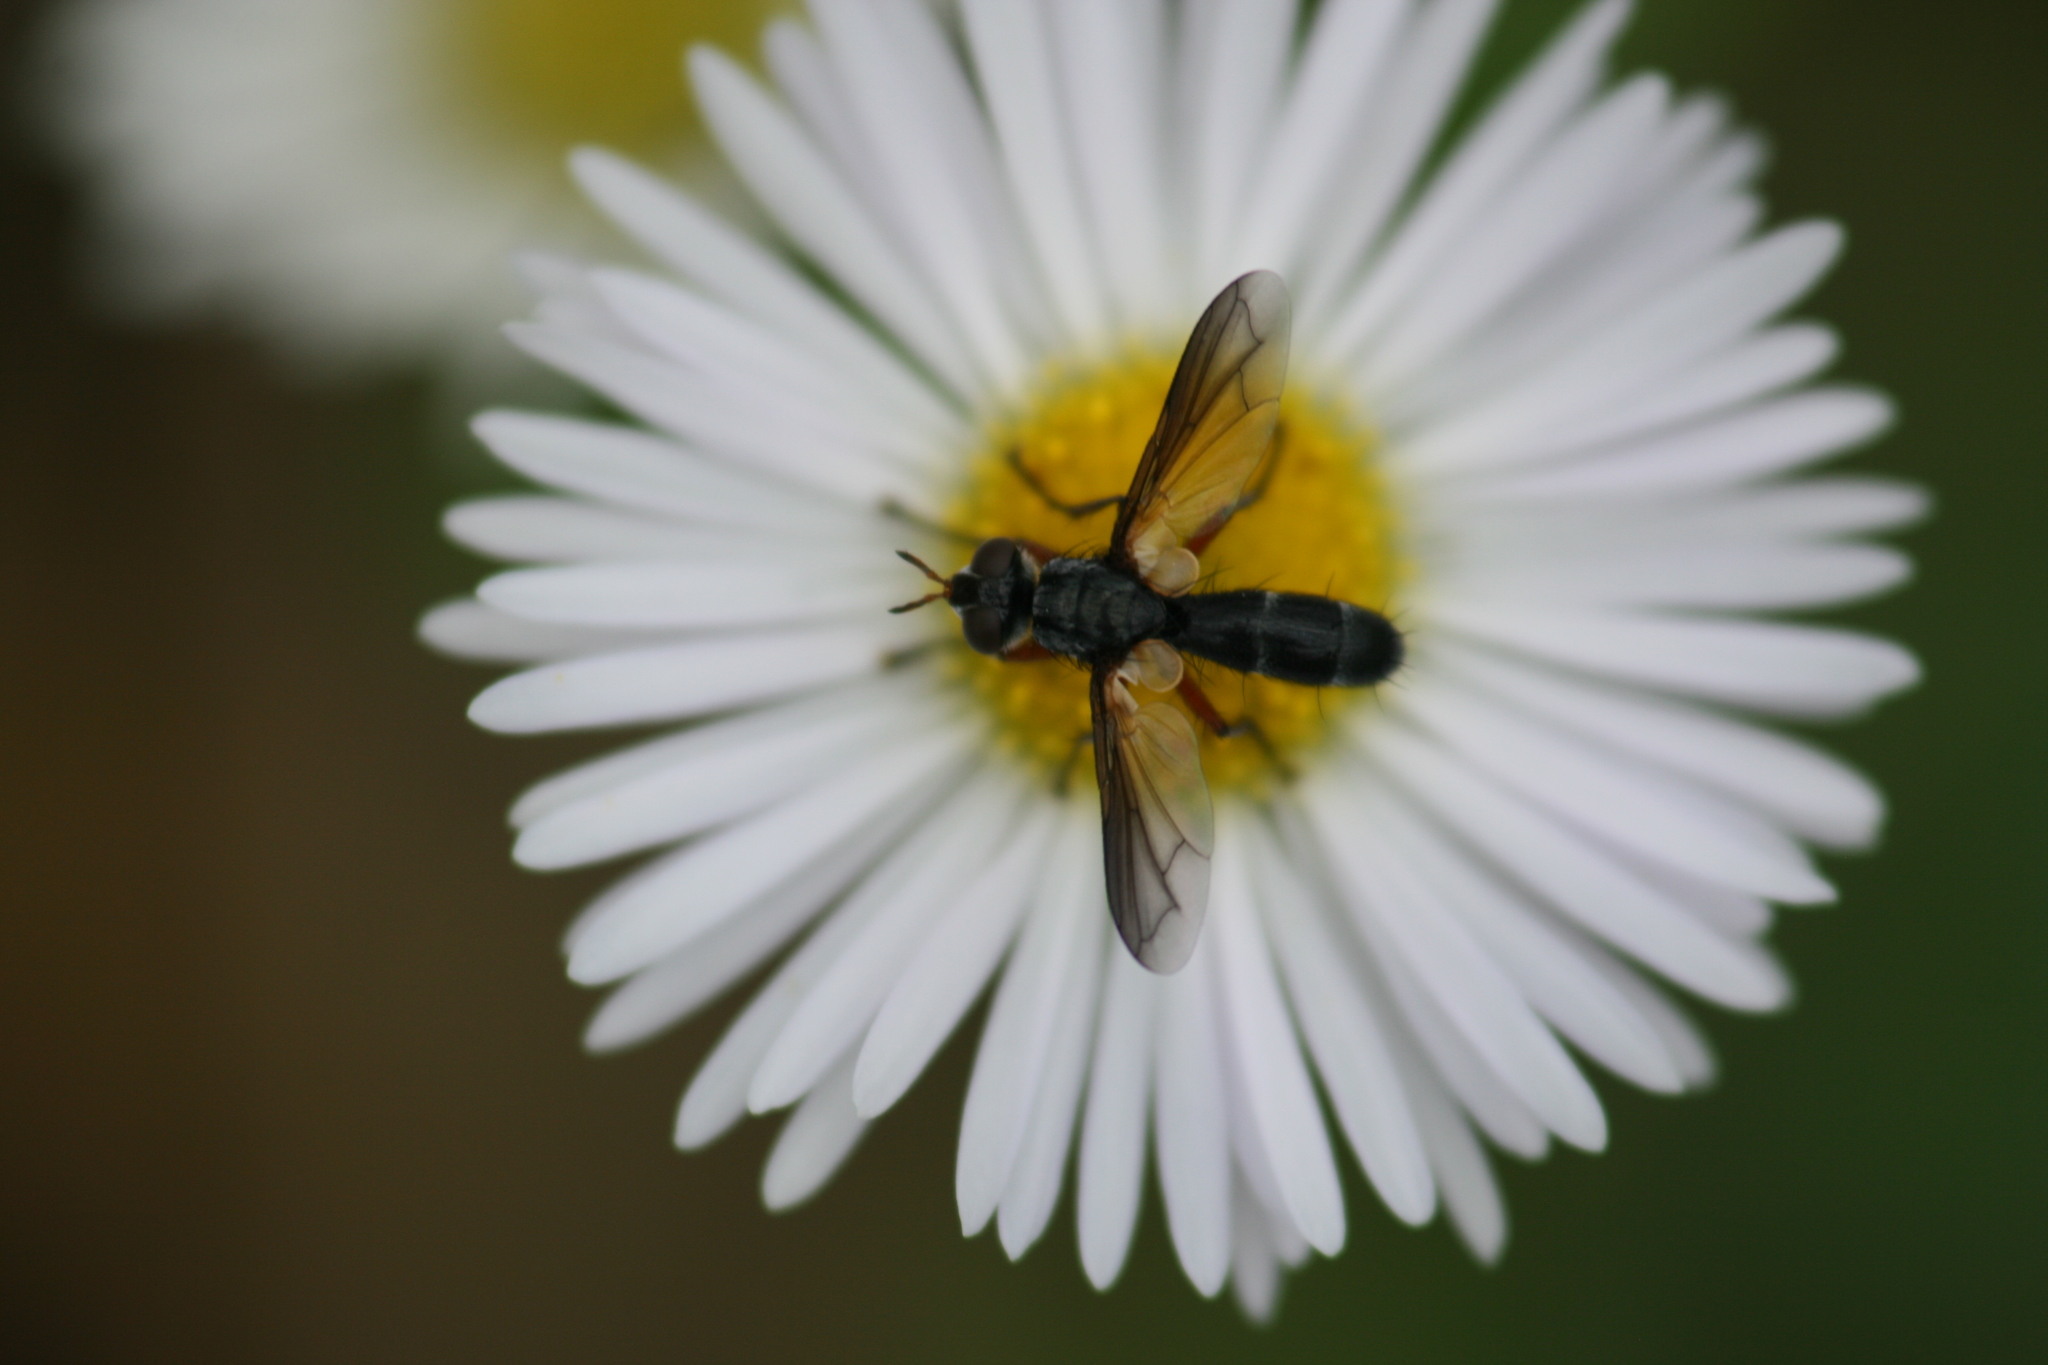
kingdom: Animalia
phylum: Arthropoda
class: Insecta
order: Diptera
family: Tachinidae
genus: Cylindromyia
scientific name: Cylindromyia rufipes
